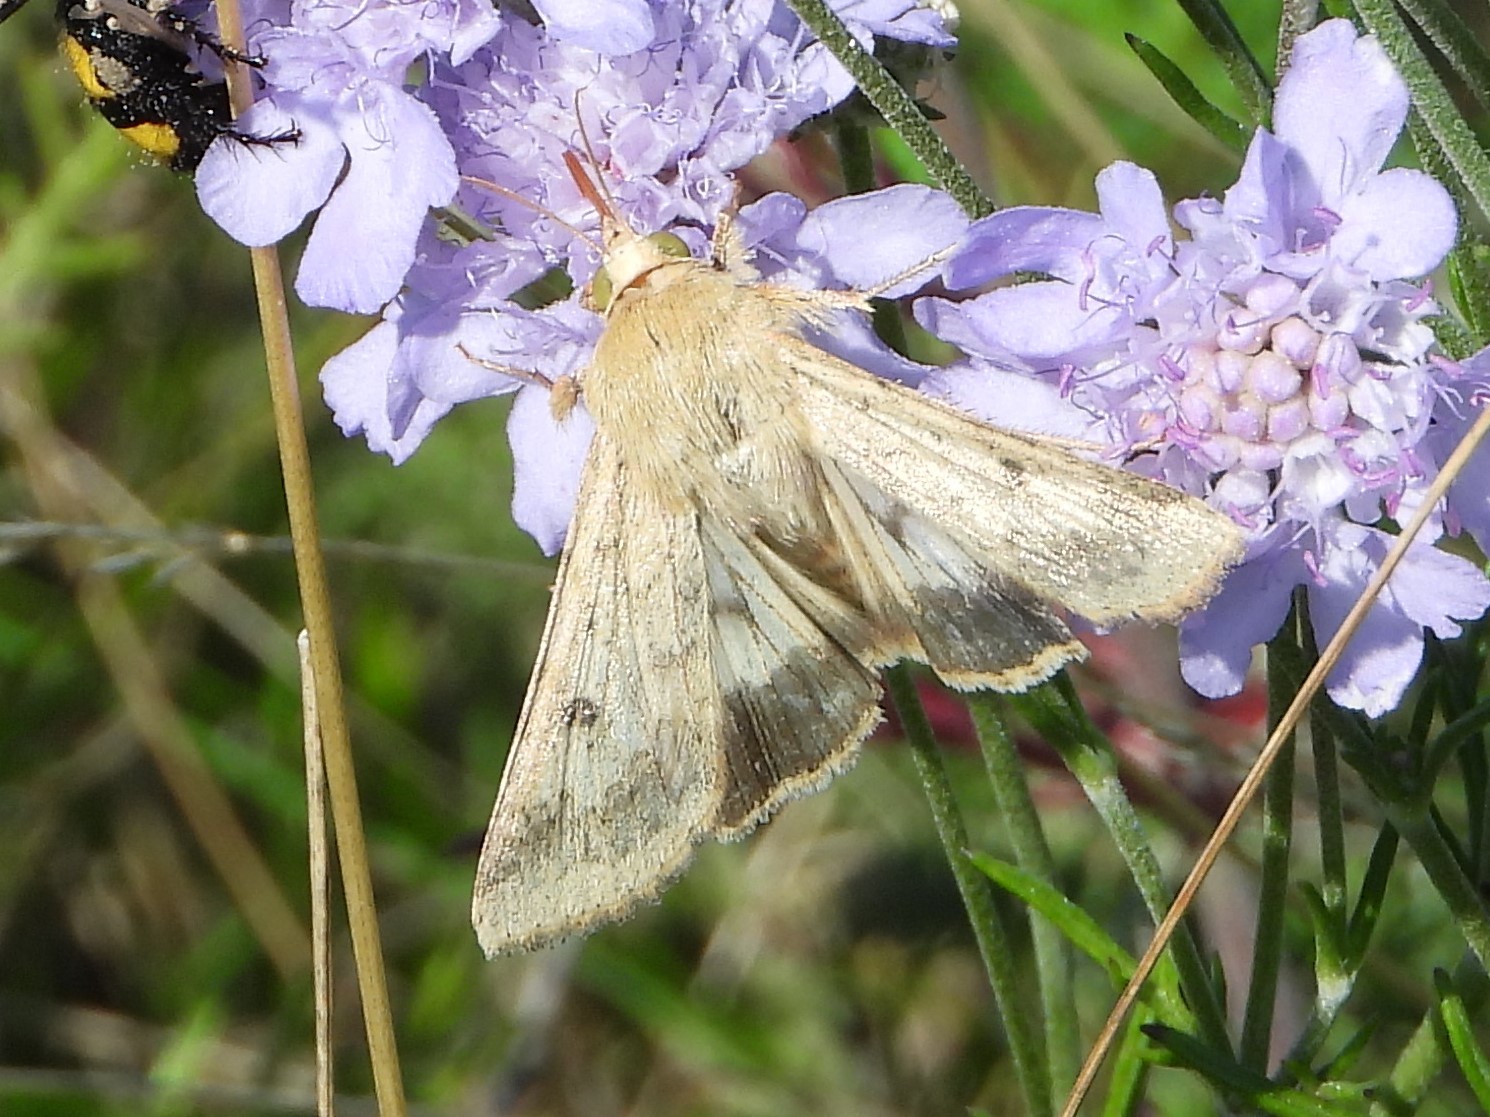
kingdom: Animalia
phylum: Arthropoda
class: Insecta
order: Lepidoptera
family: Noctuidae
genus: Helicoverpa
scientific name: Helicoverpa armigera
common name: Cotton bollworm
